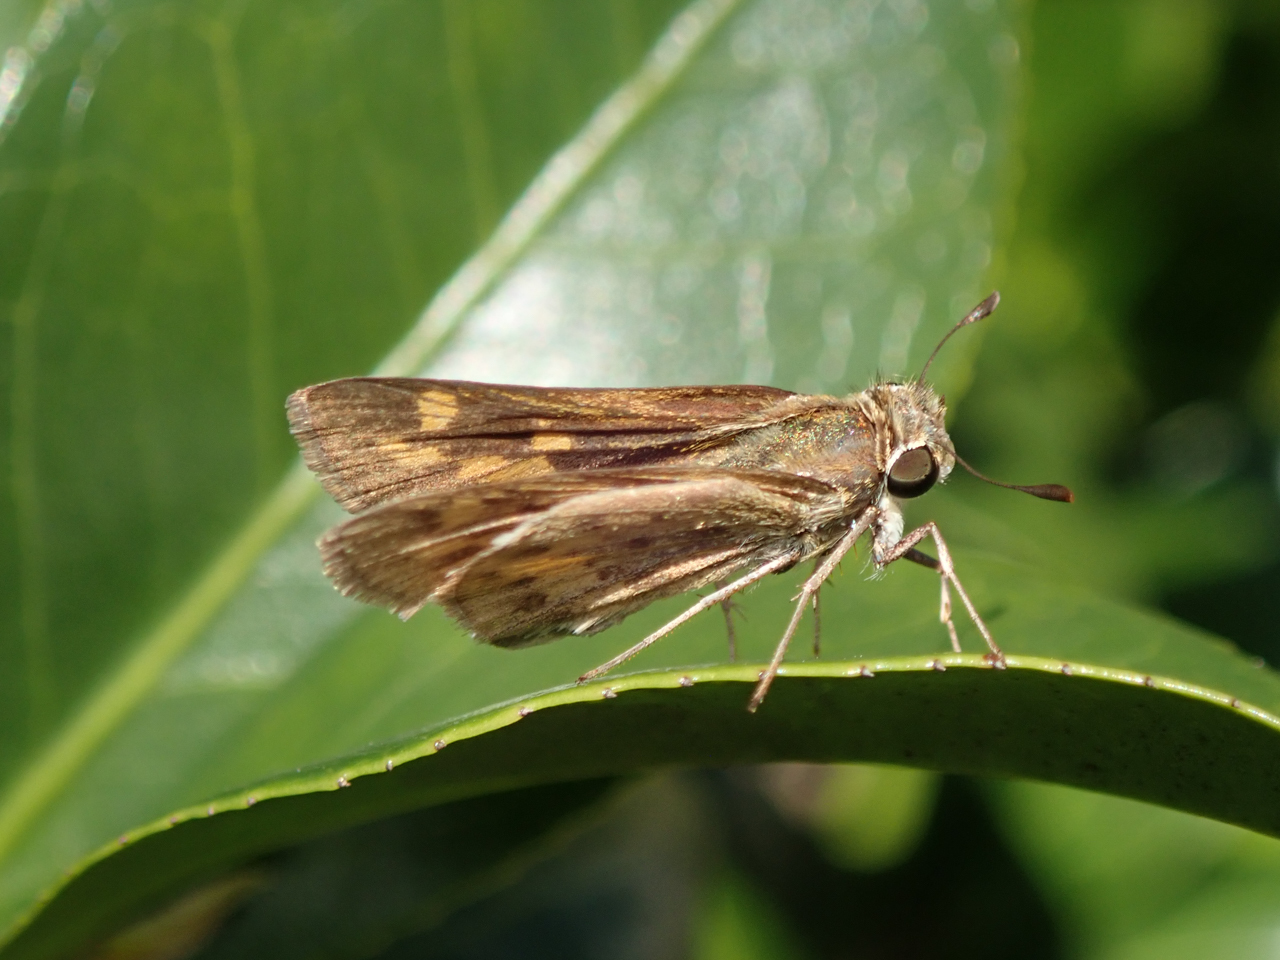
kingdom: Animalia
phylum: Arthropoda
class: Insecta
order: Lepidoptera
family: Hesperiidae
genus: Hylephila
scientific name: Hylephila phyleus
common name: Fiery skipper
